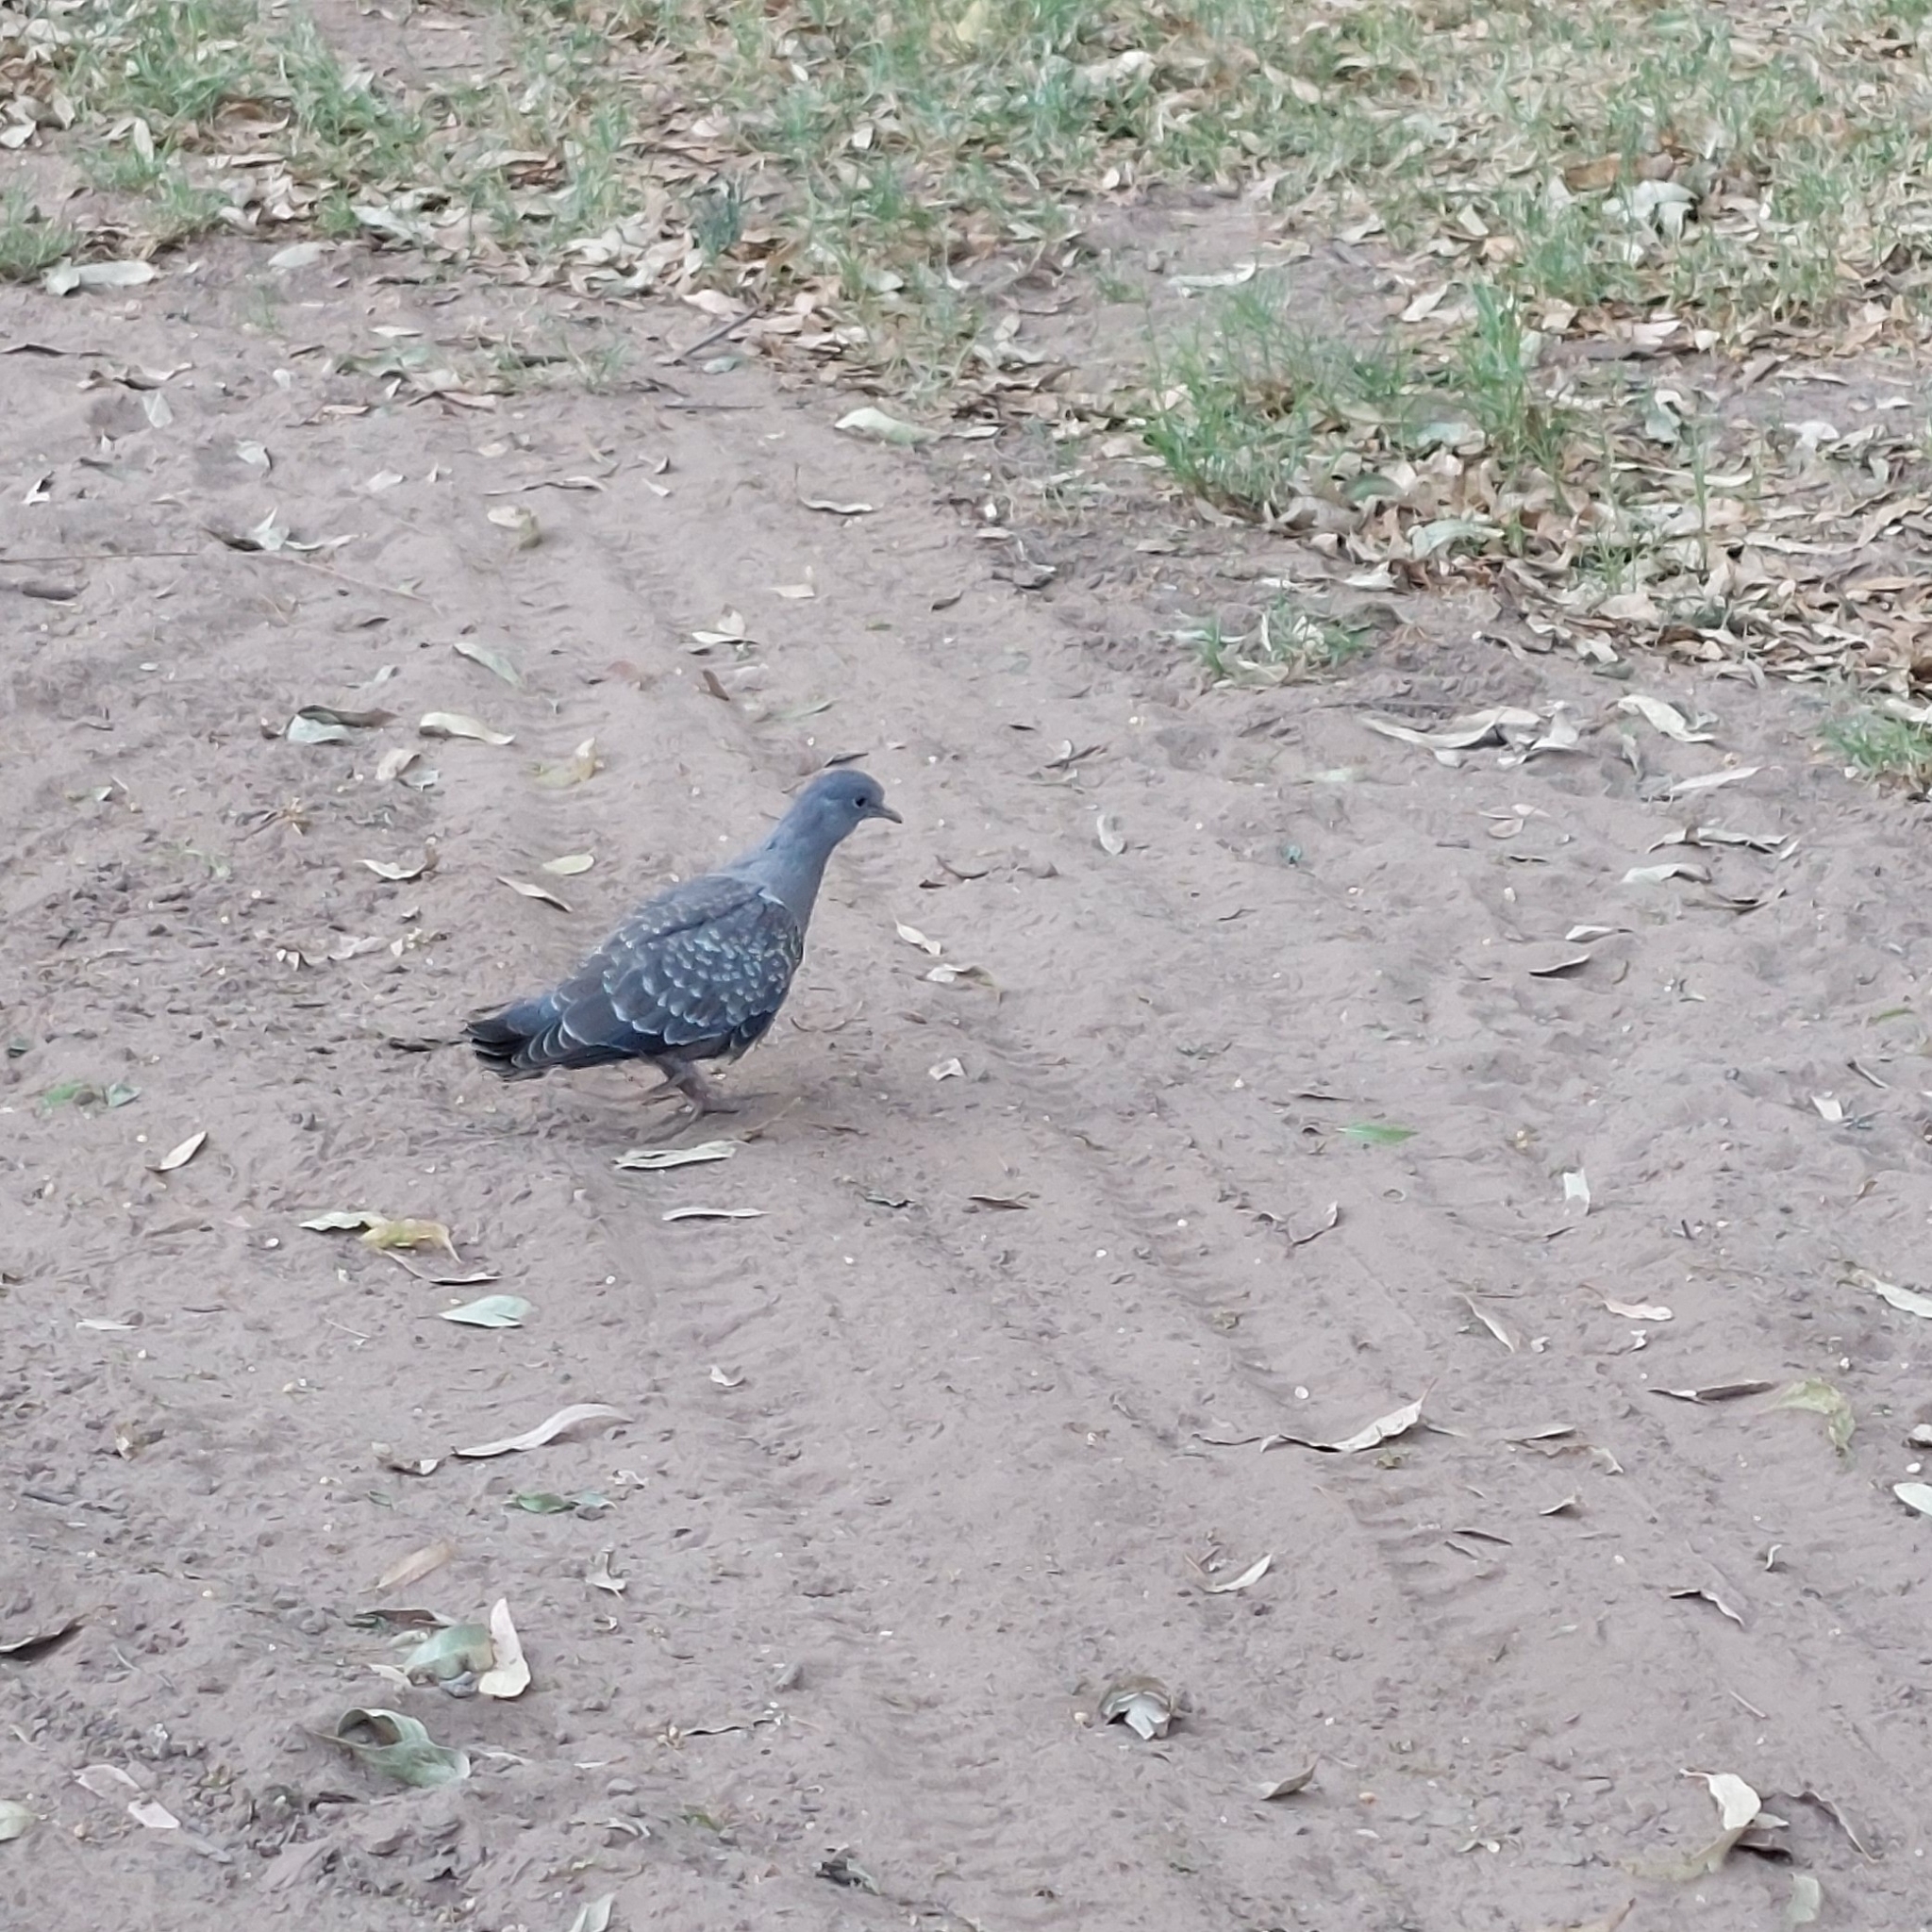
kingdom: Animalia
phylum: Chordata
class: Aves
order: Columbiformes
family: Columbidae
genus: Patagioenas
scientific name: Patagioenas maculosa
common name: Spot-winged pigeon
